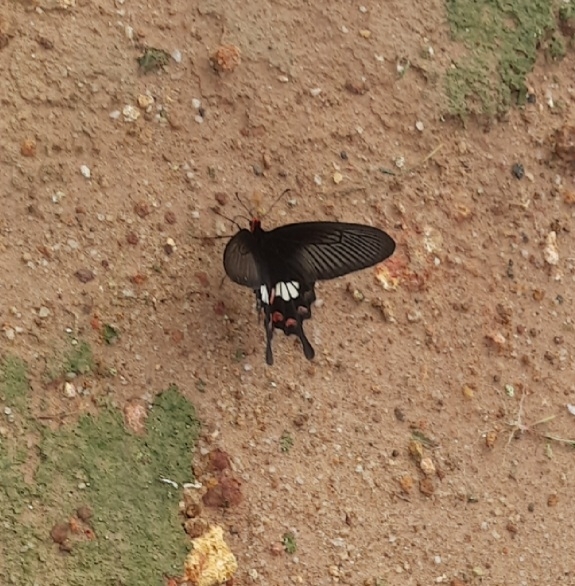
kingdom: Animalia
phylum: Arthropoda
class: Insecta
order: Lepidoptera
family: Papilionidae
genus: Pachliopta
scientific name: Pachliopta aristolochiae
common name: Common rose
